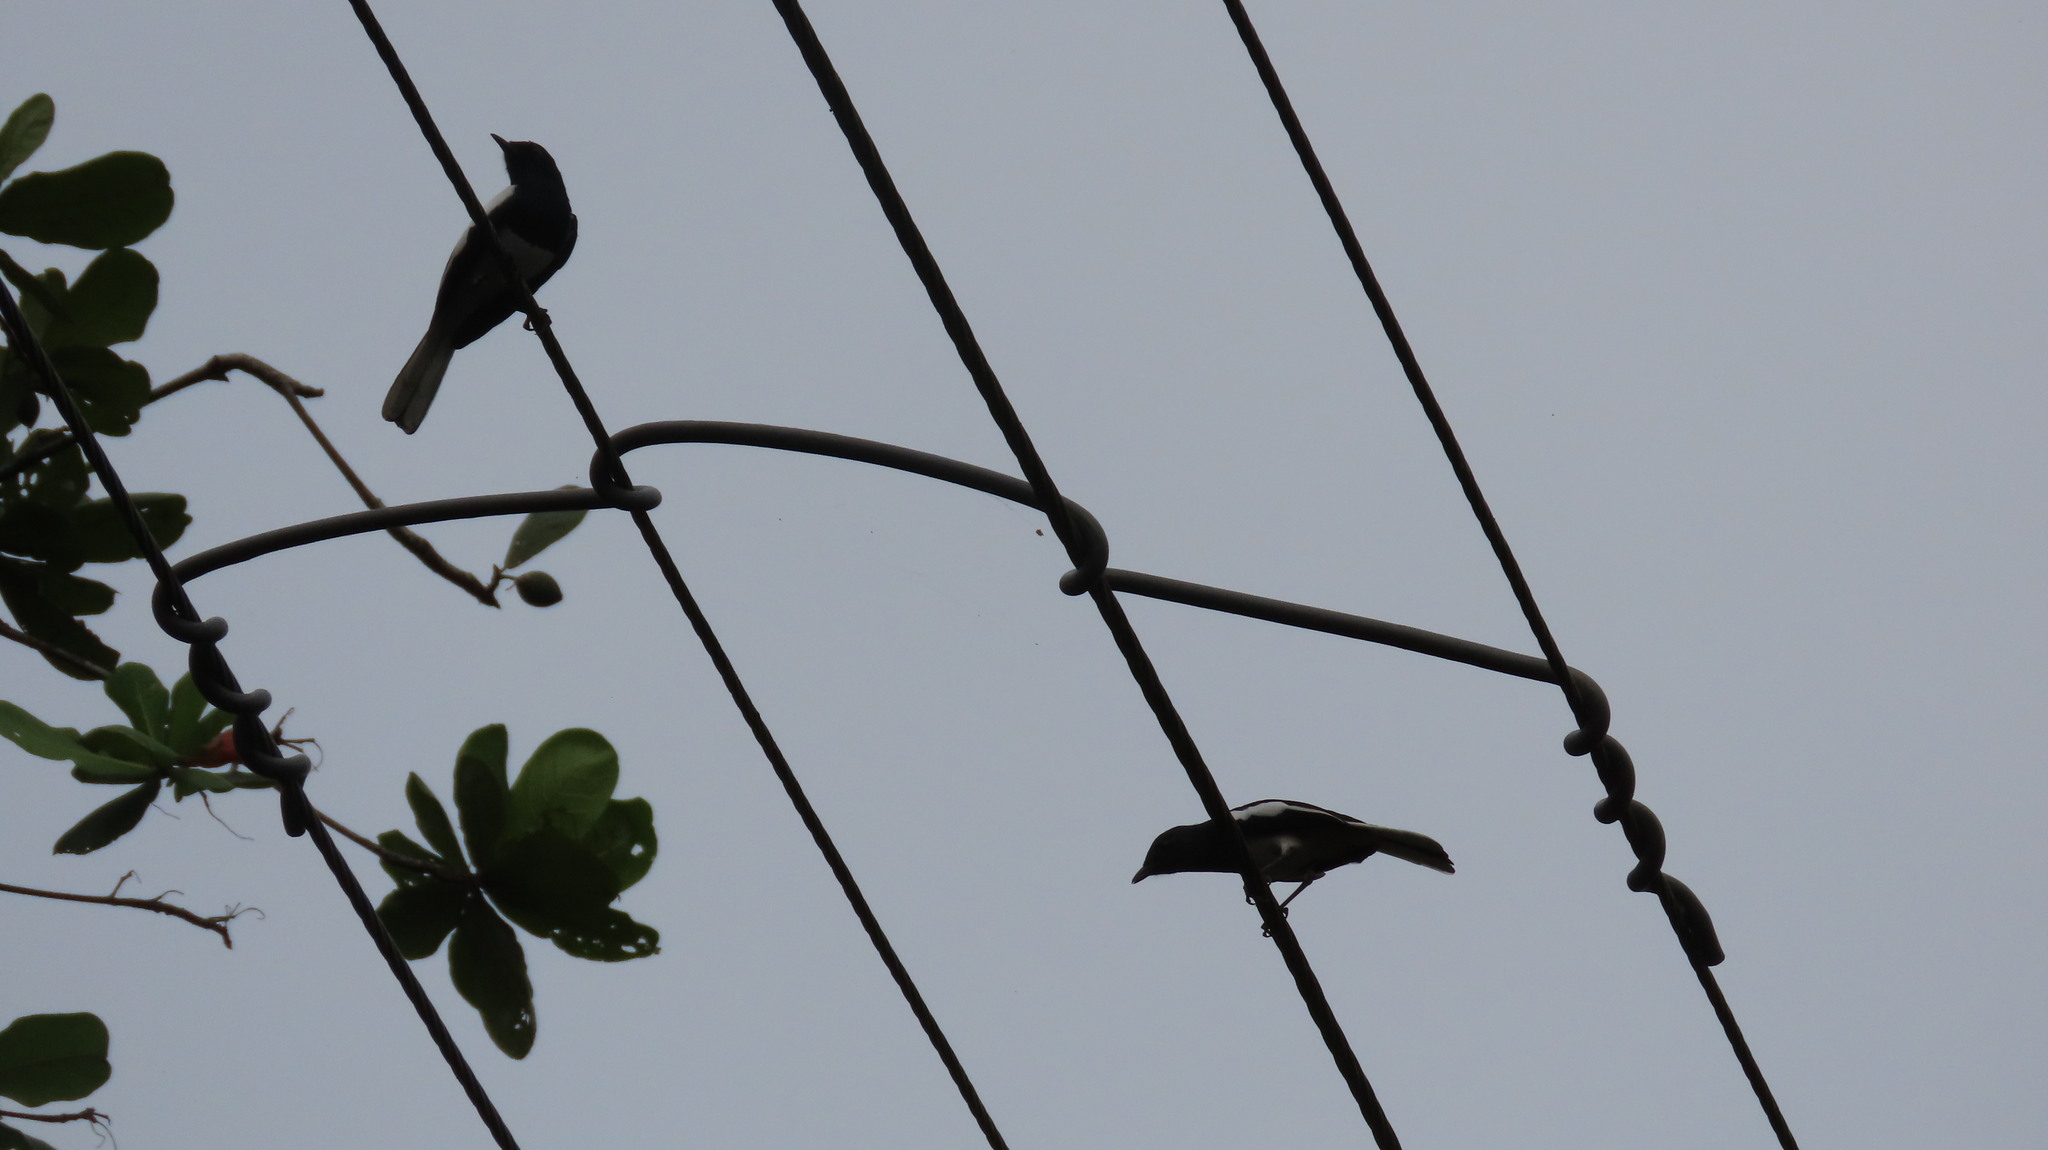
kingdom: Animalia
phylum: Chordata
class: Aves
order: Passeriformes
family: Muscicapidae
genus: Copsychus
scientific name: Copsychus saularis
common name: Oriental magpie-robin
